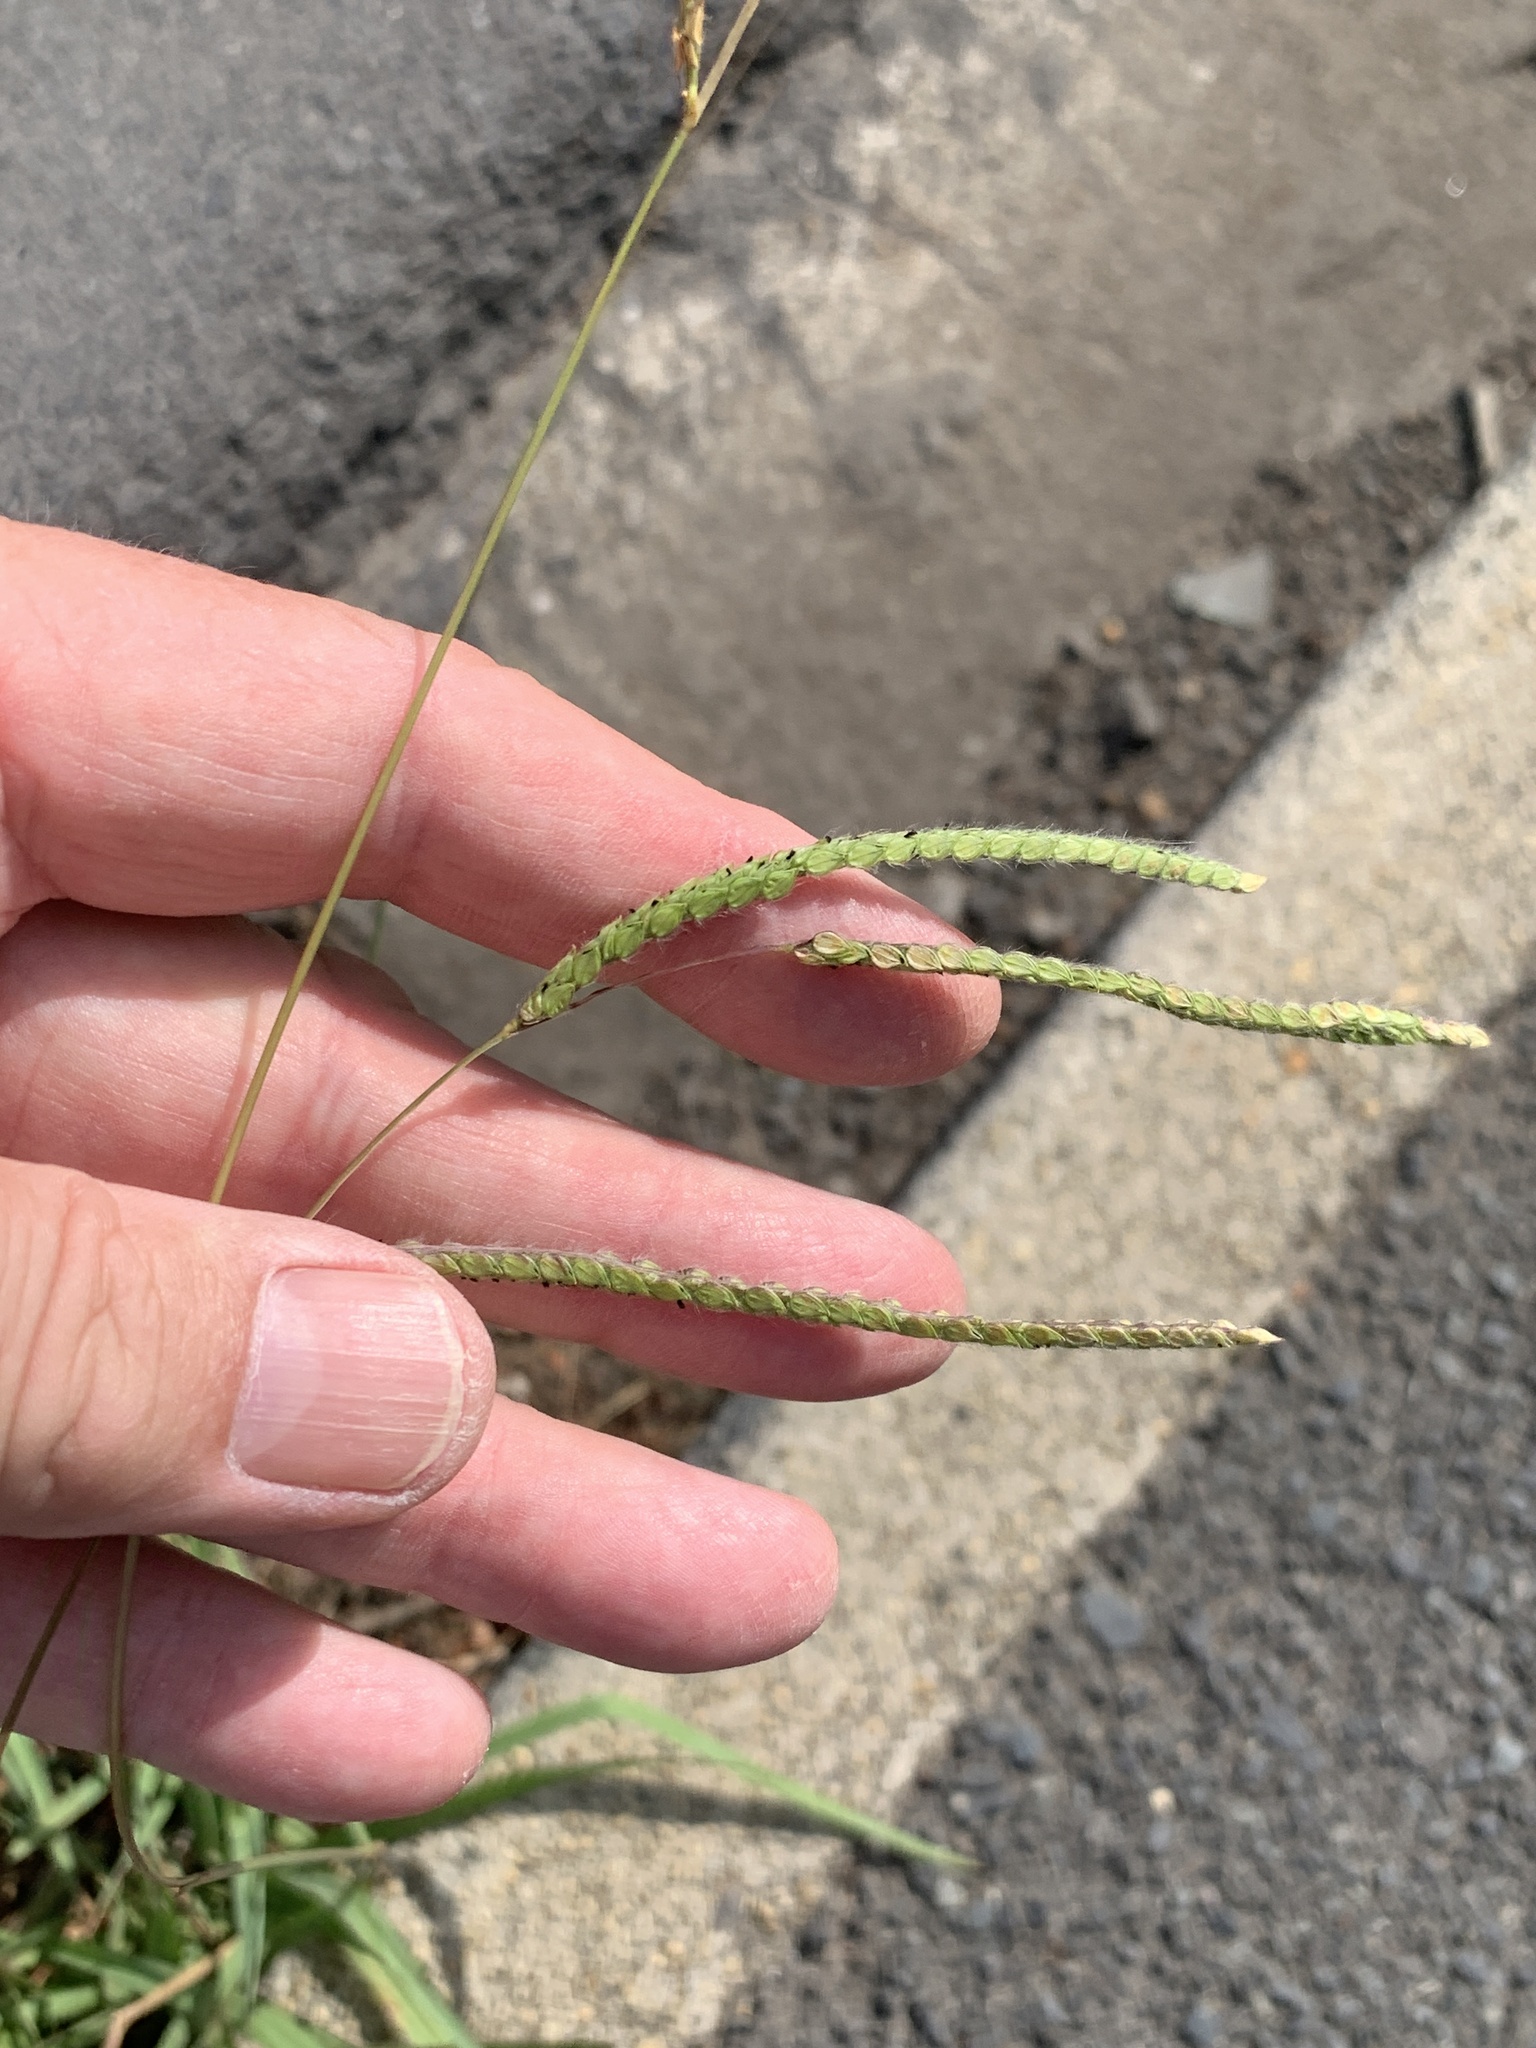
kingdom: Plantae
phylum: Tracheophyta
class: Liliopsida
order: Poales
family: Poaceae
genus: Paspalum
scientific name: Paspalum dilatatum
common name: Dallisgrass
